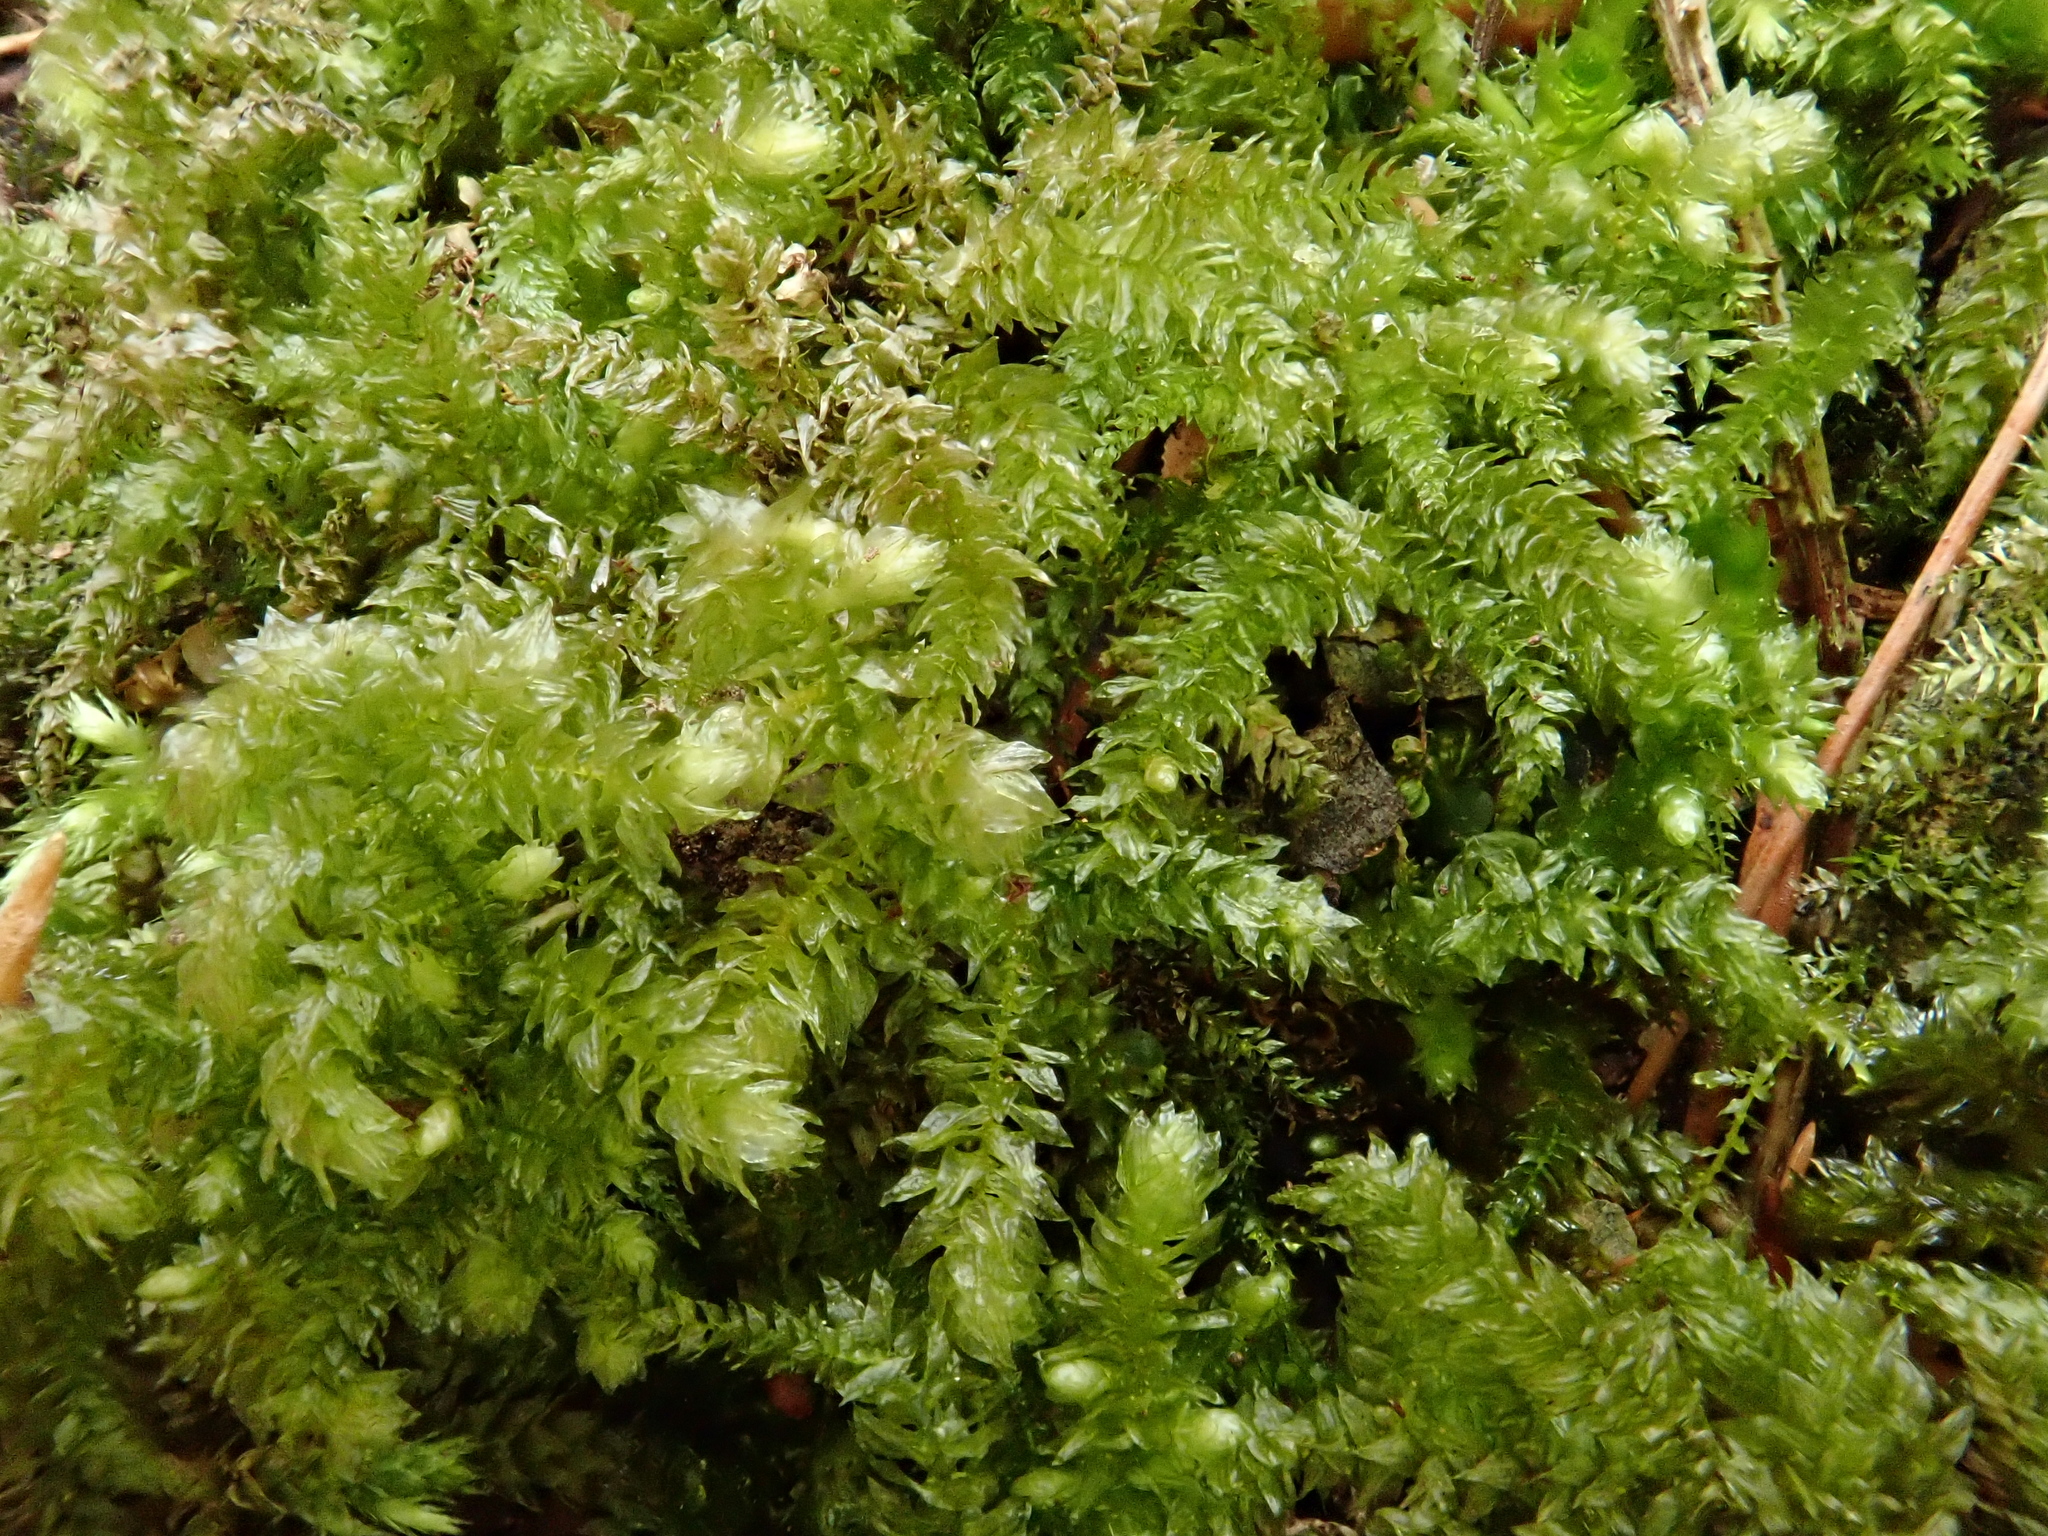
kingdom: Plantae
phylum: Bryophyta
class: Bryopsida
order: Hypnales
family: Brachytheciaceae
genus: Eurhynchium
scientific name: Eurhynchium angustirete
